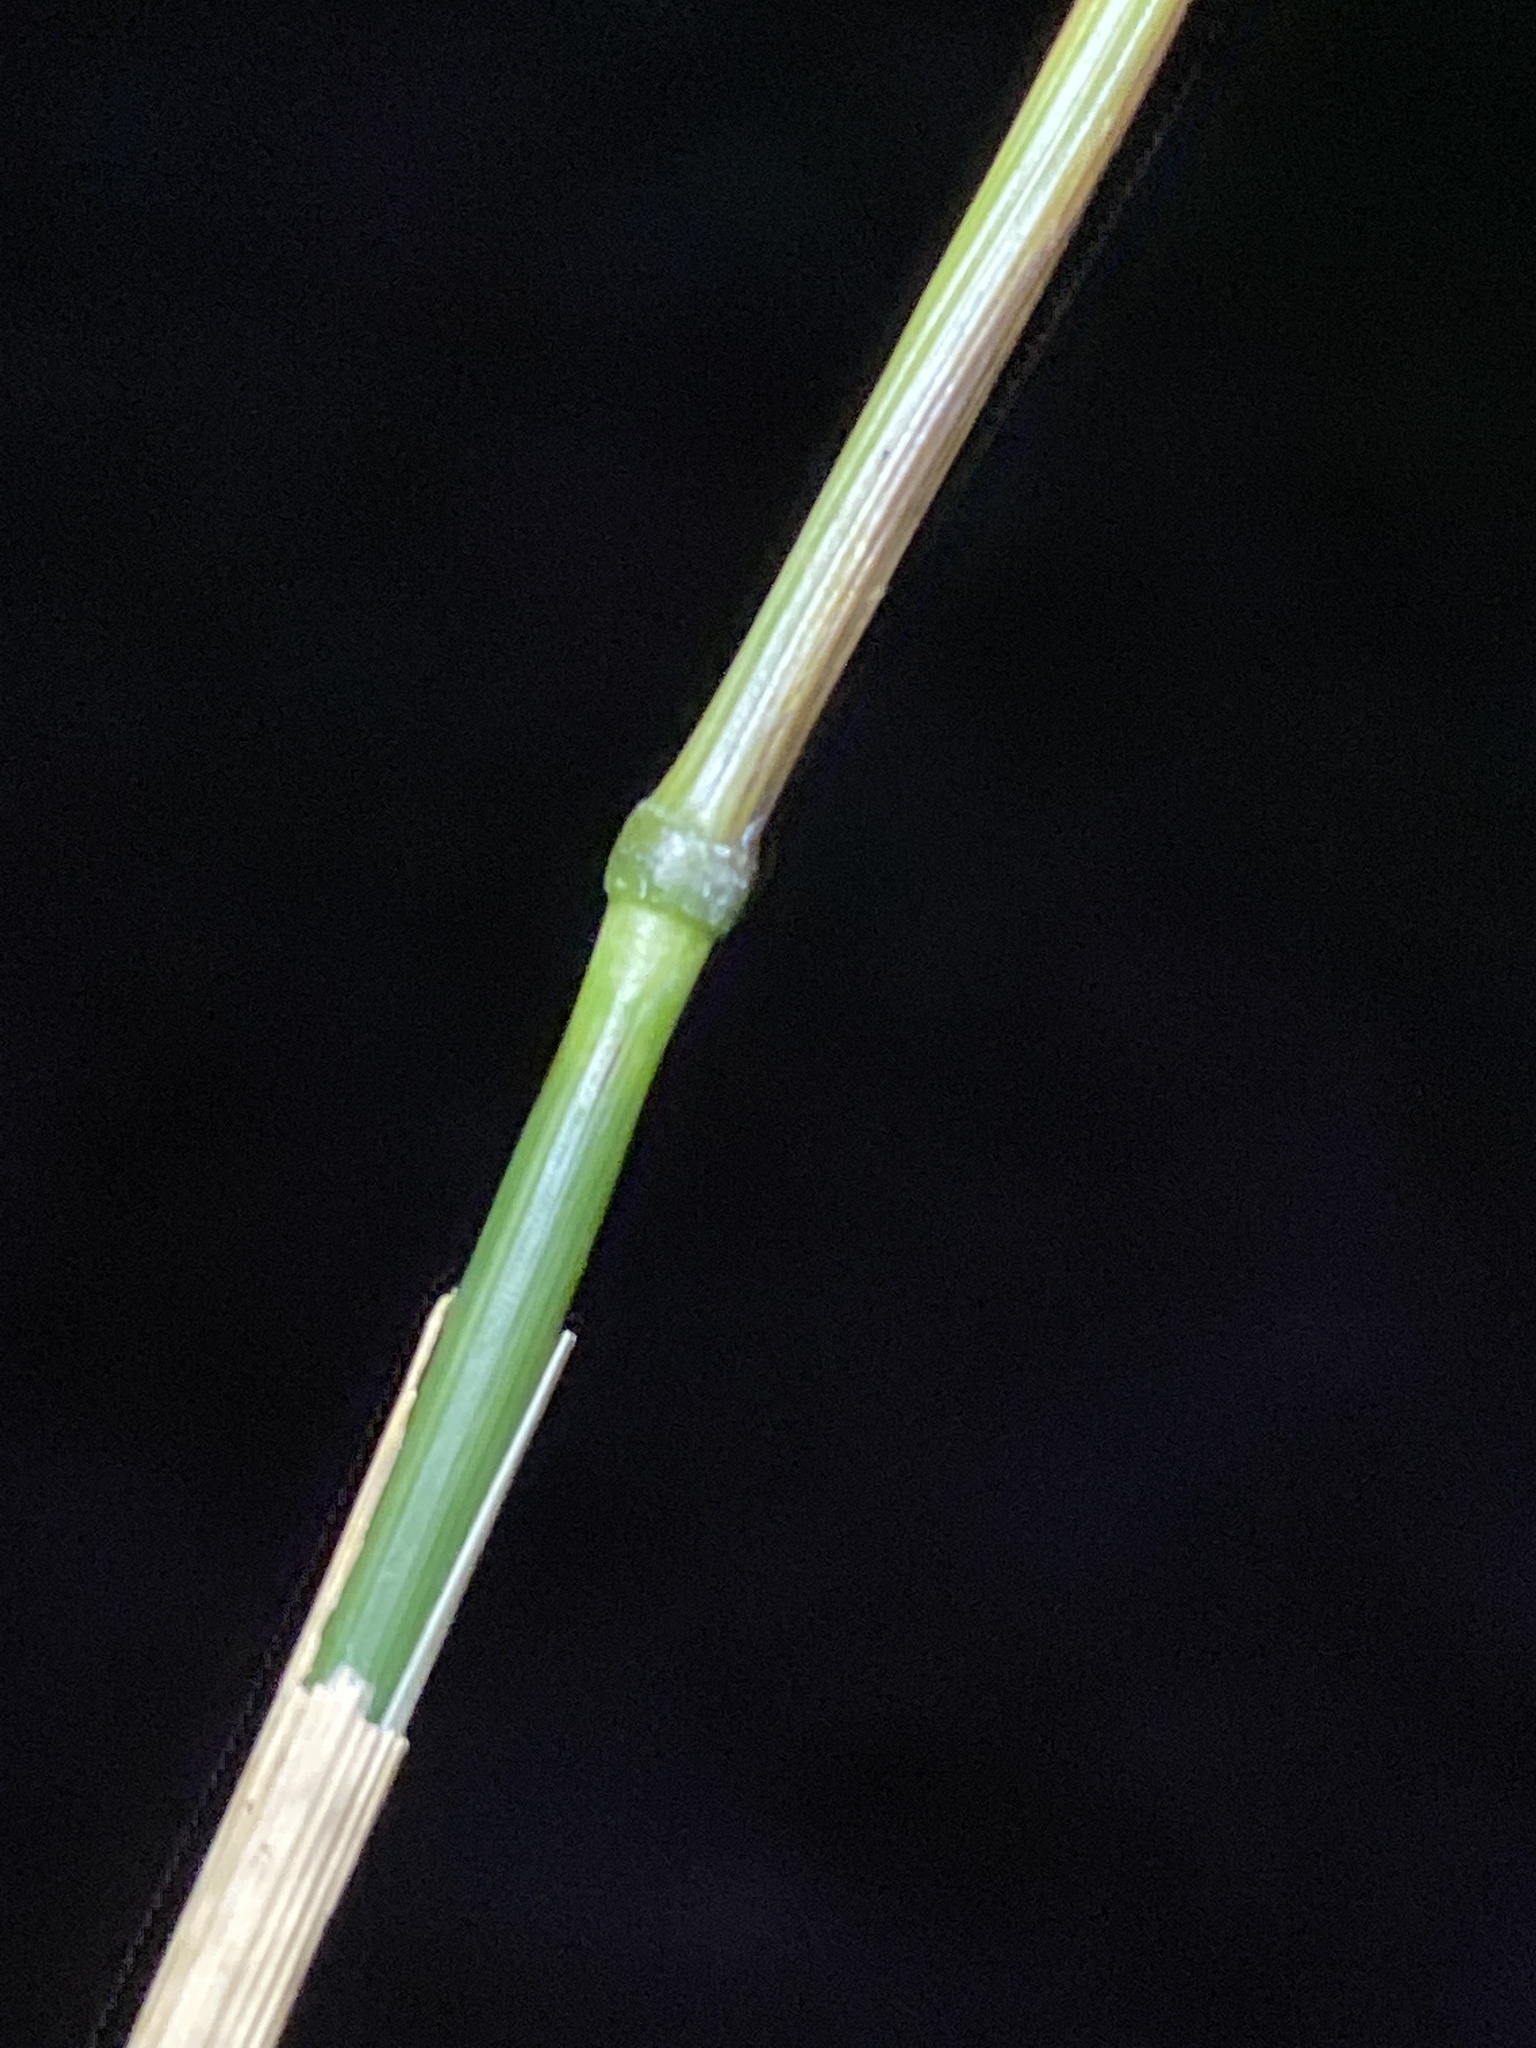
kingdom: Plantae
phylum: Tracheophyta
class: Liliopsida
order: Poales
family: Poaceae
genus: Elymus
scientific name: Elymus hystrix
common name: Bottlebrush grass
